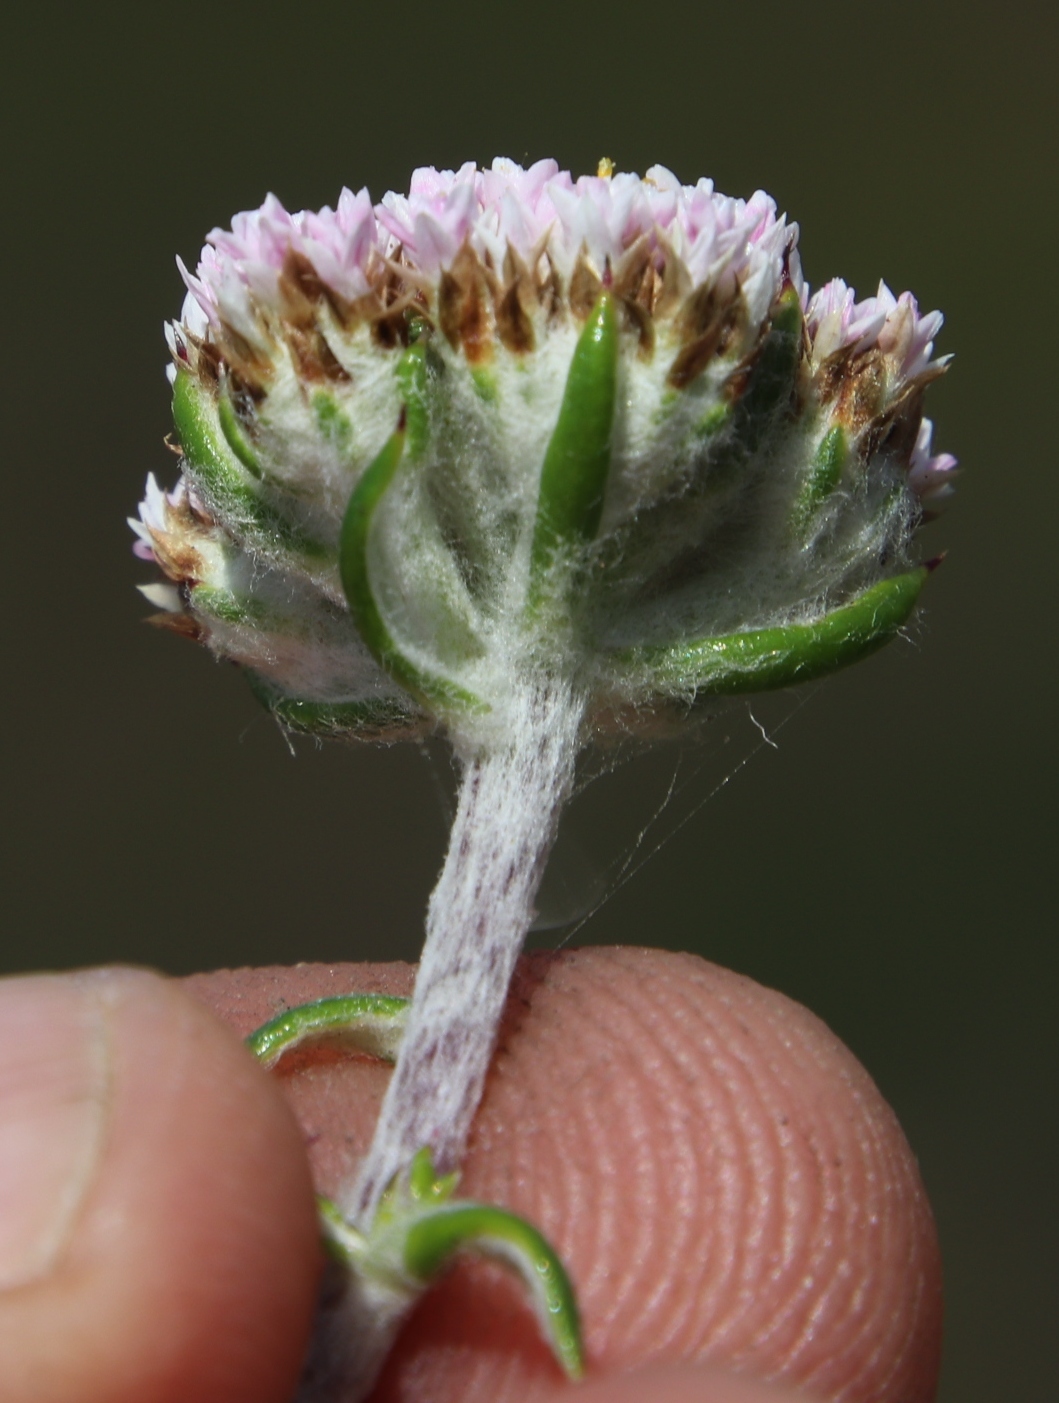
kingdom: Plantae
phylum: Tracheophyta
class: Magnoliopsida
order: Asterales
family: Asteraceae
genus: Metalasia
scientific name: Metalasia divergens
